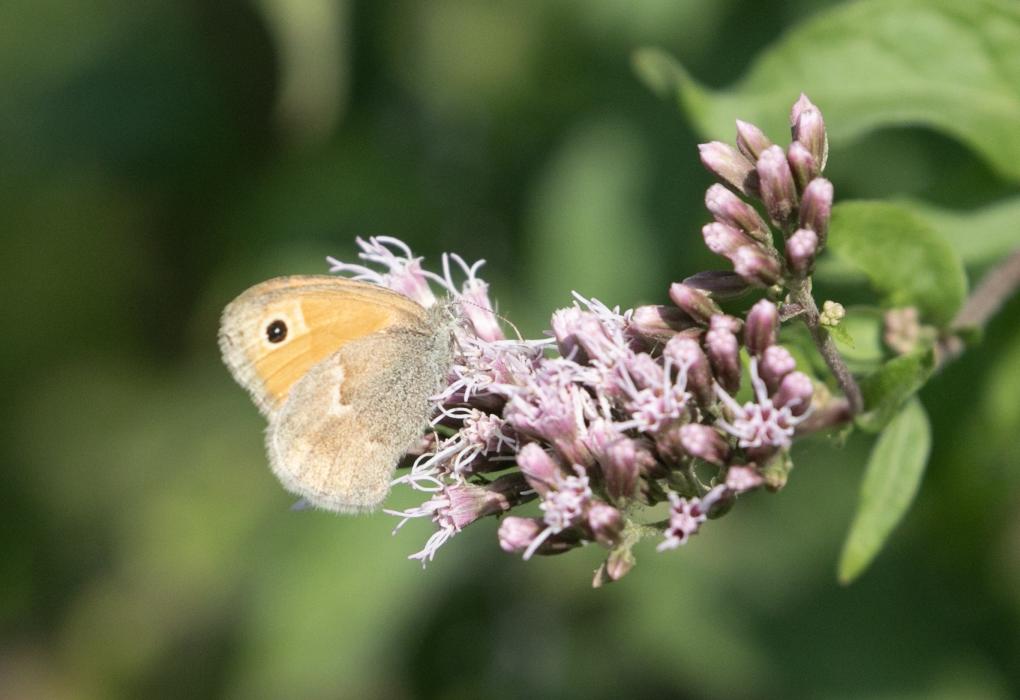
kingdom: Animalia
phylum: Arthropoda
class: Insecta
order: Lepidoptera
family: Nymphalidae
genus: Coenonympha
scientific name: Coenonympha pamphilus
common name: Small heath
